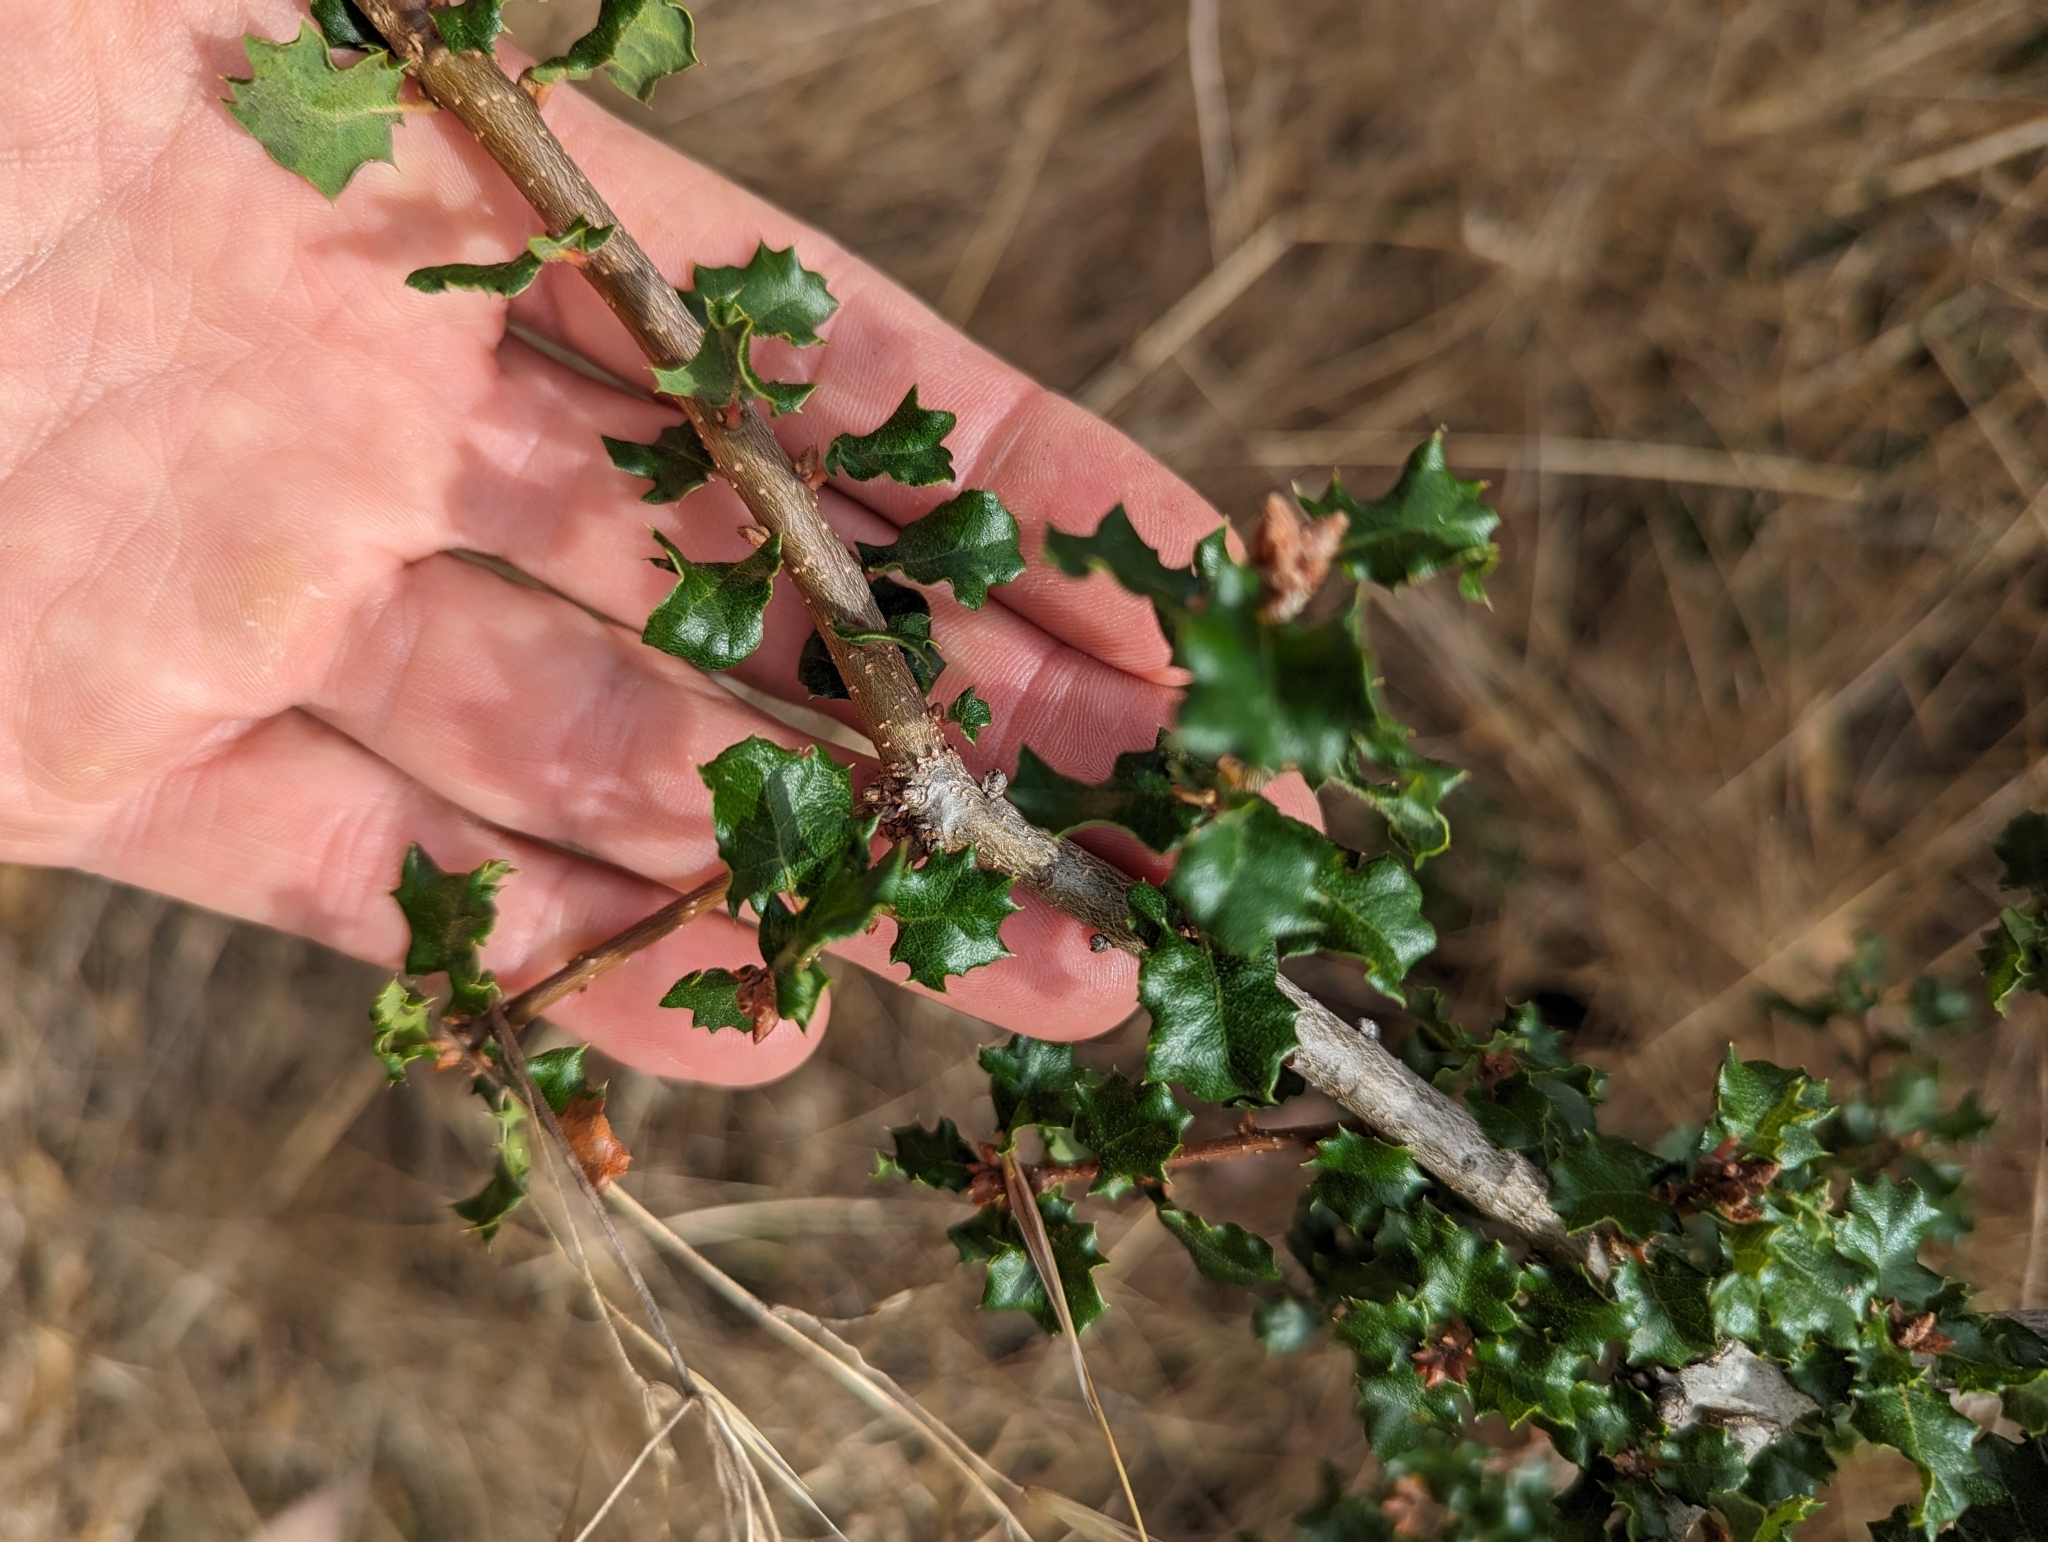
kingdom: Plantae
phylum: Tracheophyta
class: Magnoliopsida
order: Fagales
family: Fagaceae
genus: Quercus
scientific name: Quercus dumosa
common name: Coastal sage scrub oak
